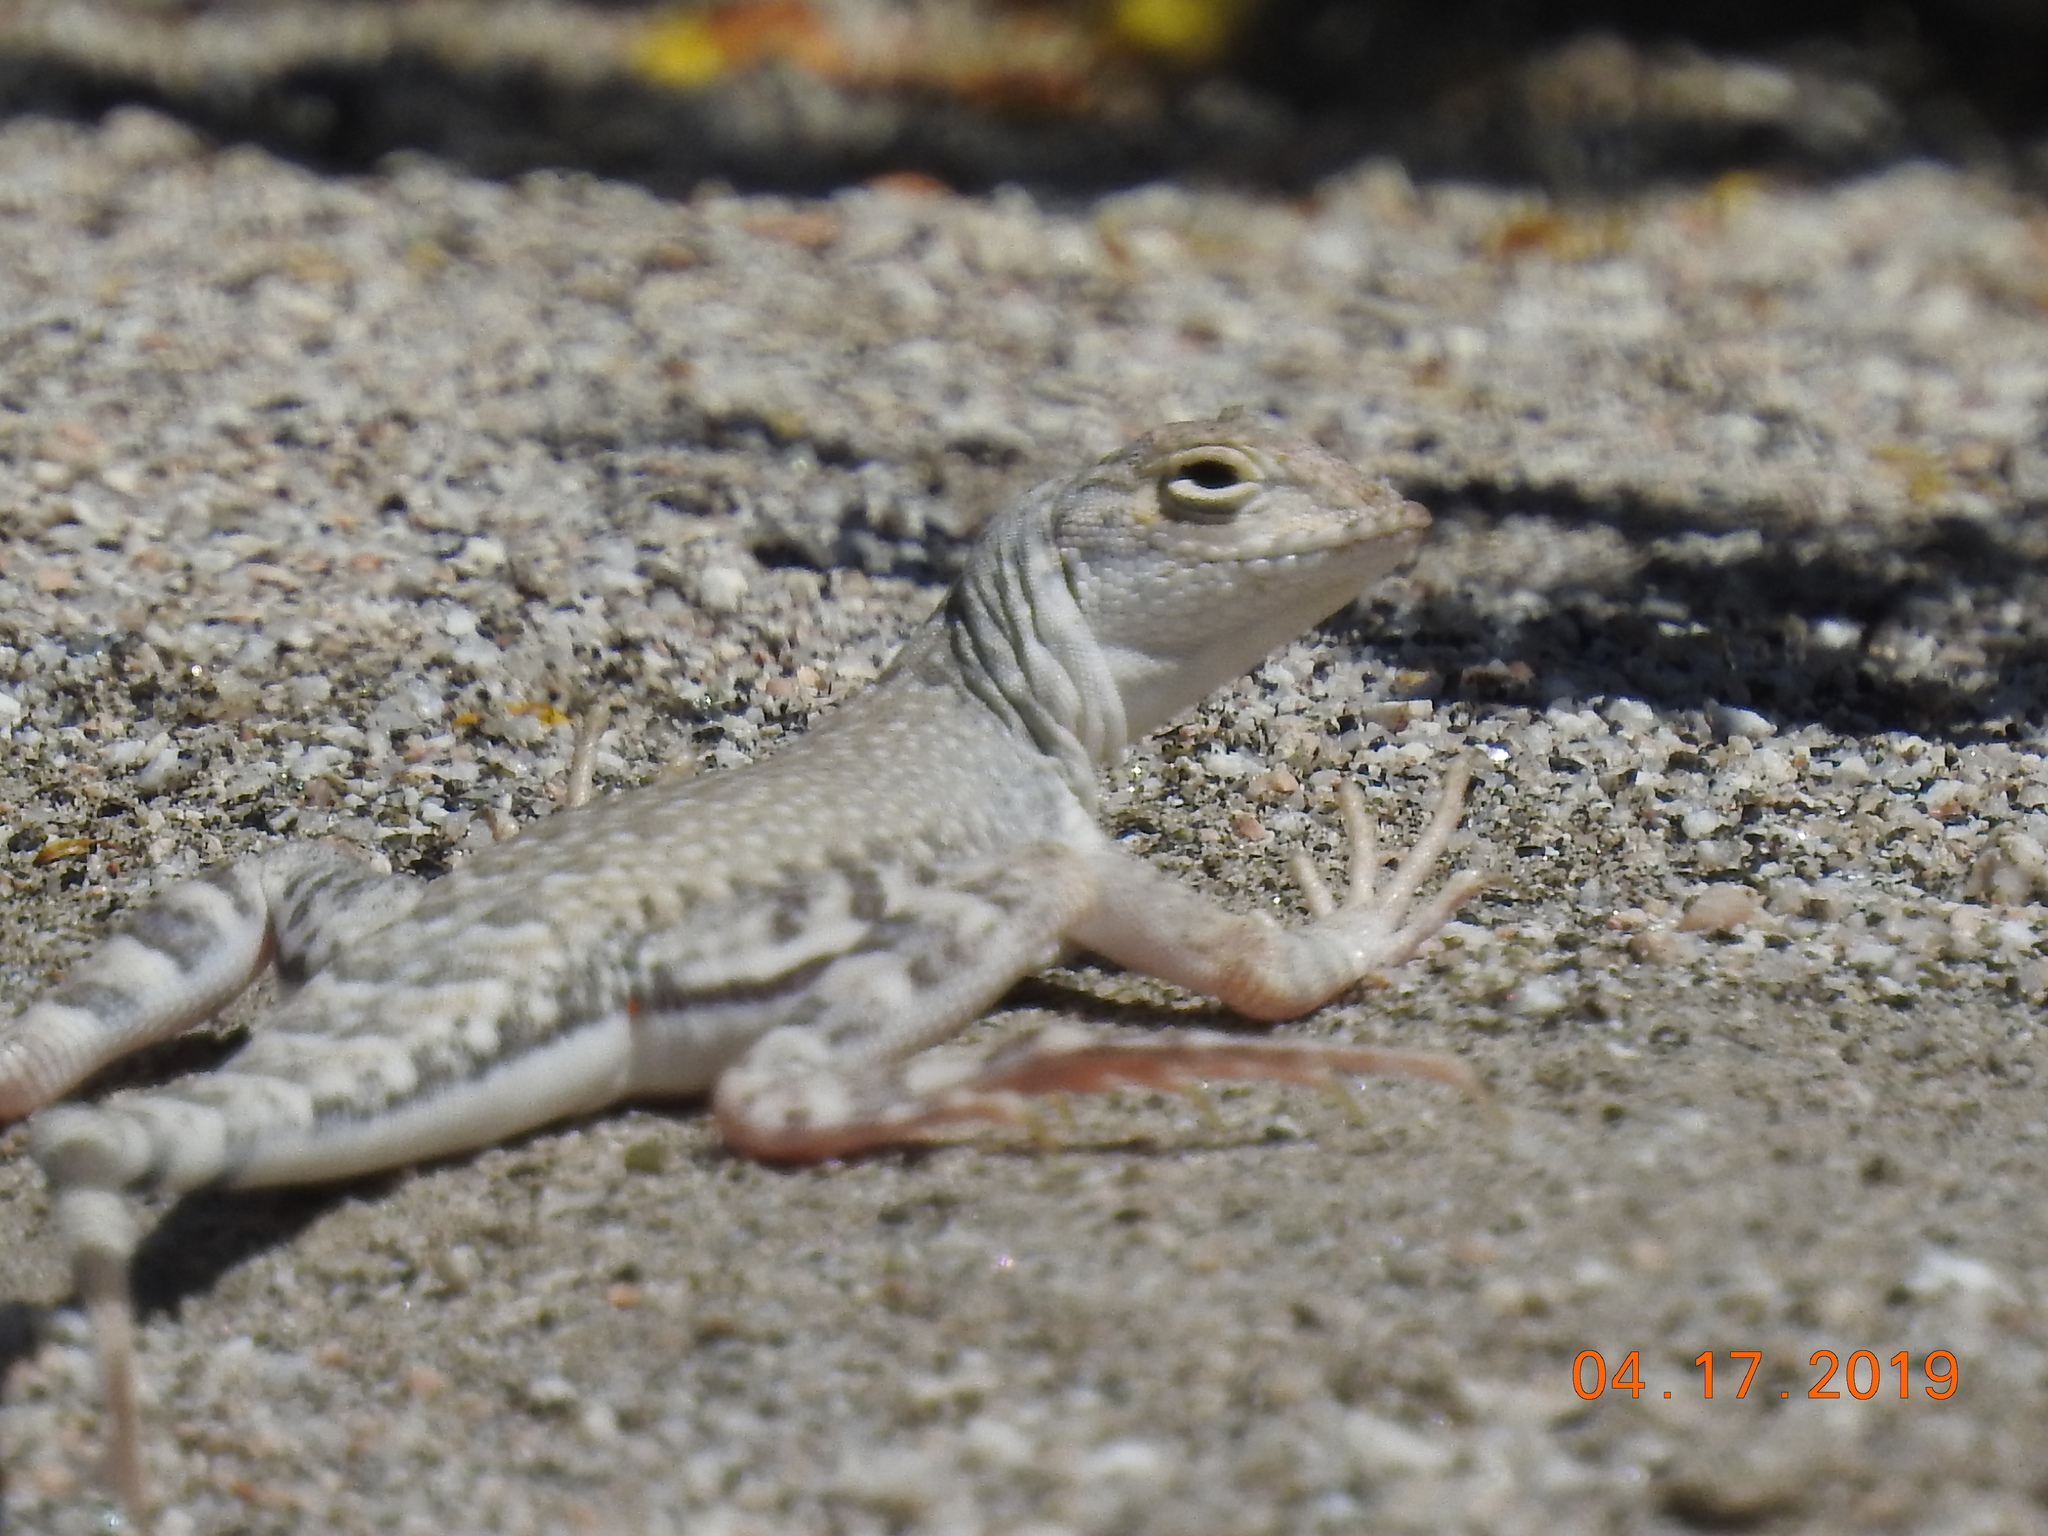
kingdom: Animalia
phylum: Chordata
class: Squamata
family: Phrynosomatidae
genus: Callisaurus
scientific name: Callisaurus draconoides
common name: Zebra-tailed lizard
